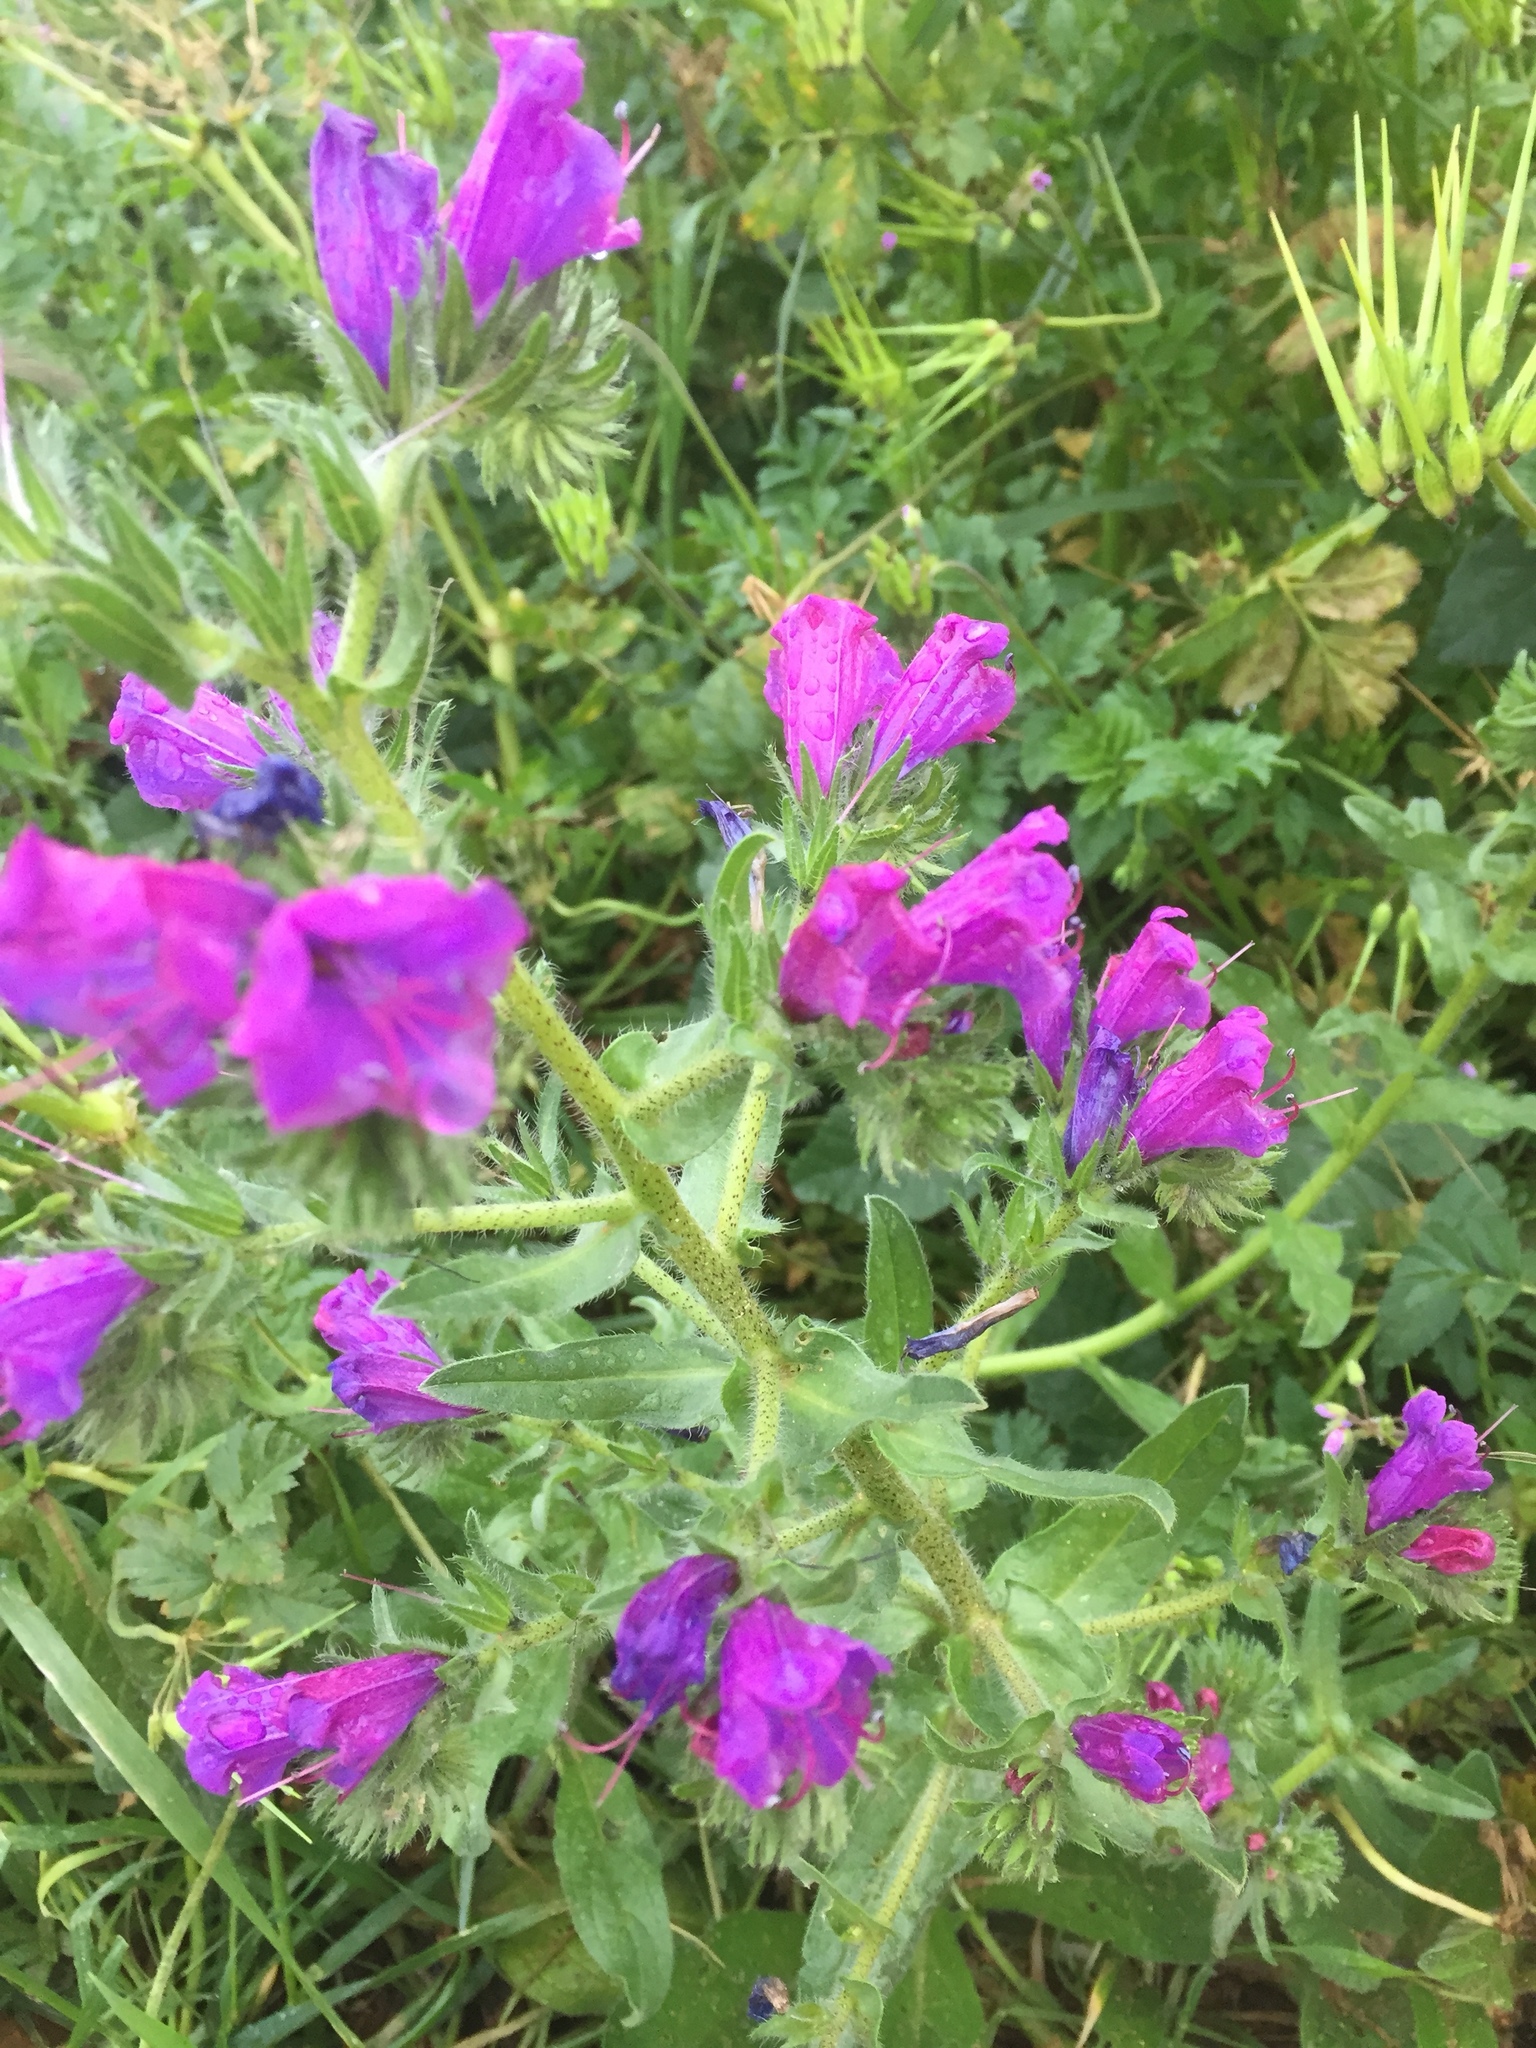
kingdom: Plantae
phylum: Tracheophyta
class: Magnoliopsida
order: Boraginales
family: Boraginaceae
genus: Echium
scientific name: Echium plantagineum
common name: Purple viper's-bugloss
